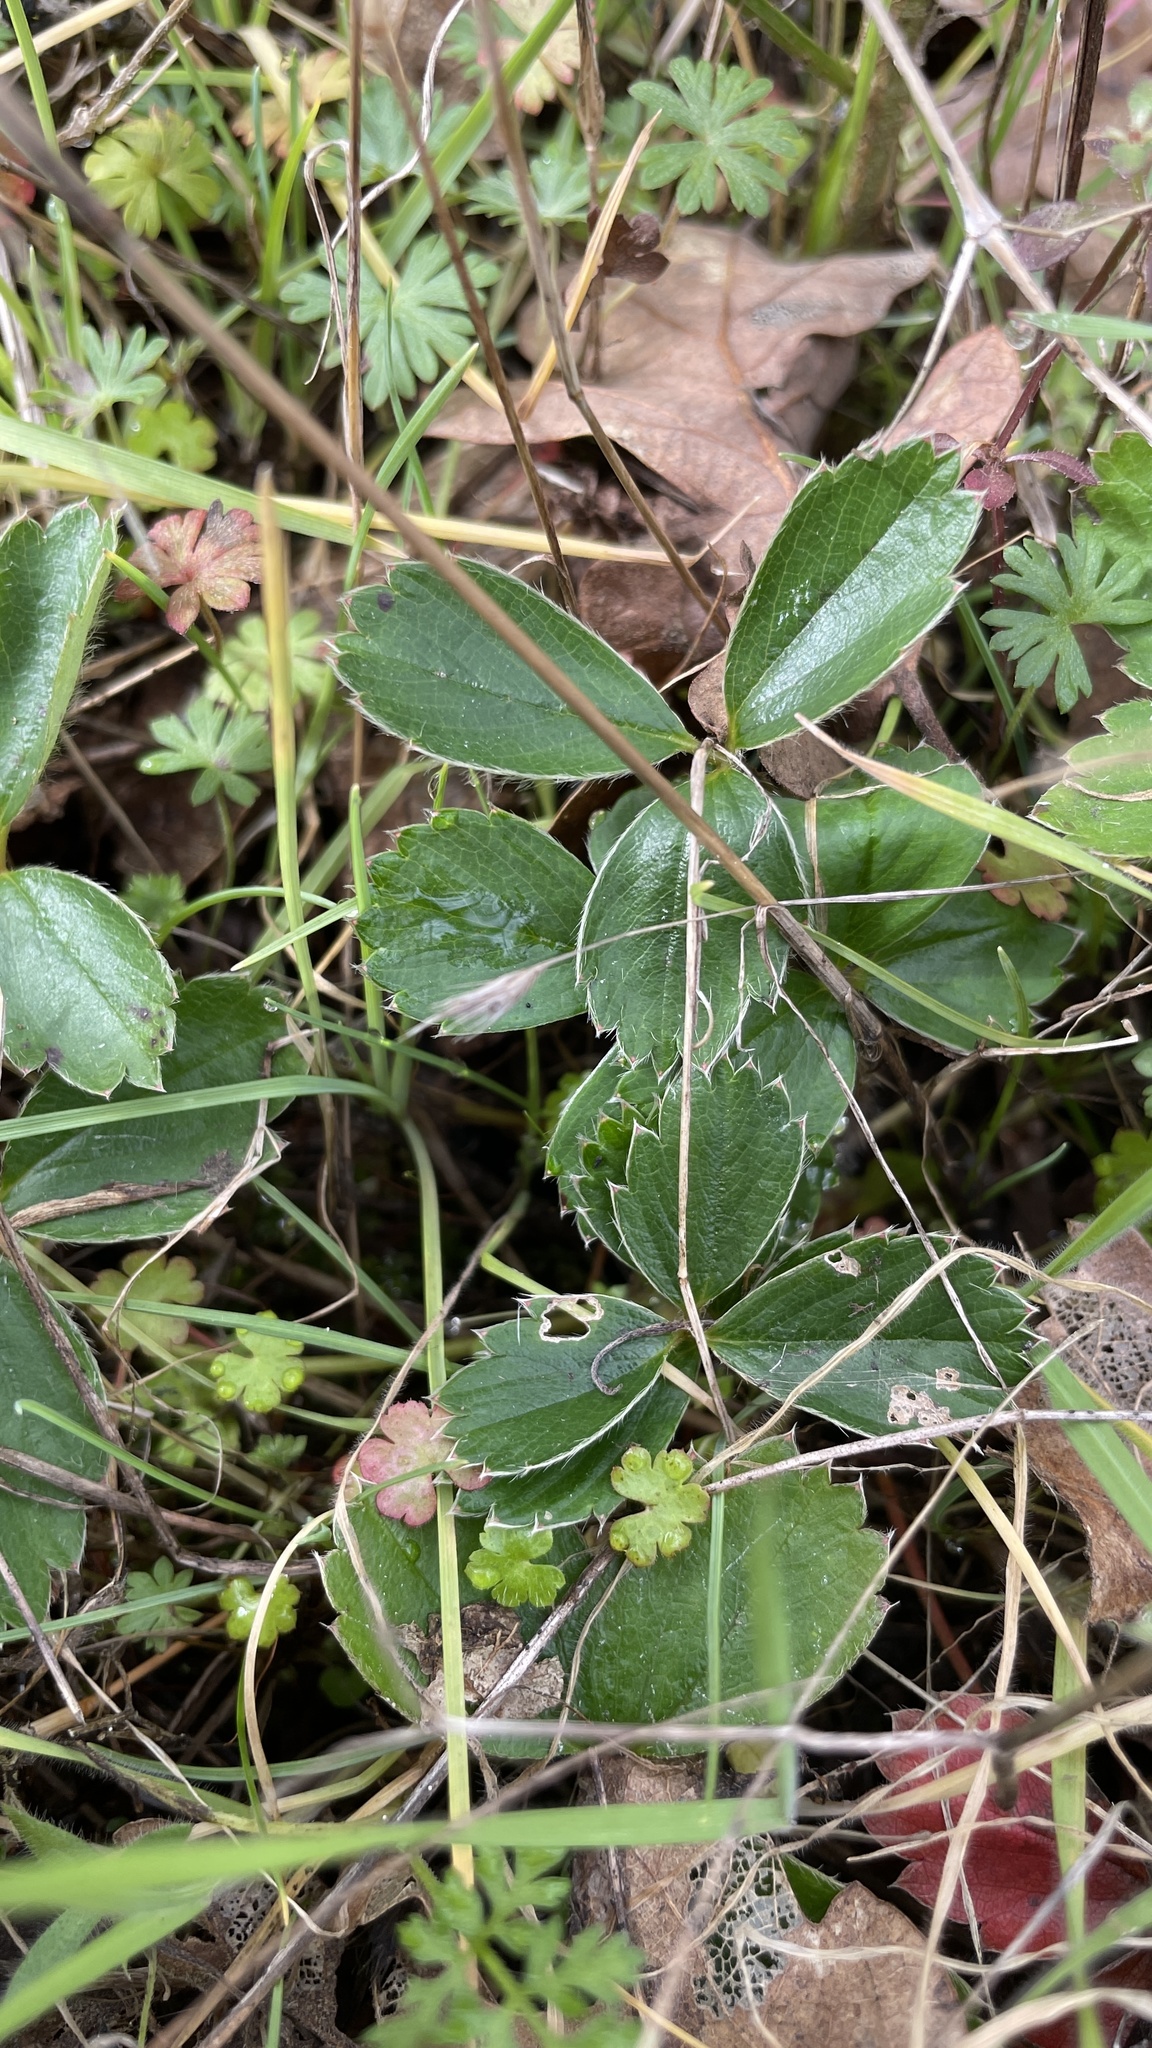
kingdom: Plantae
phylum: Tracheophyta
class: Magnoliopsida
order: Rosales
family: Rosaceae
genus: Fragaria
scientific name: Fragaria virginiana
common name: Thickleaved wild strawberry
